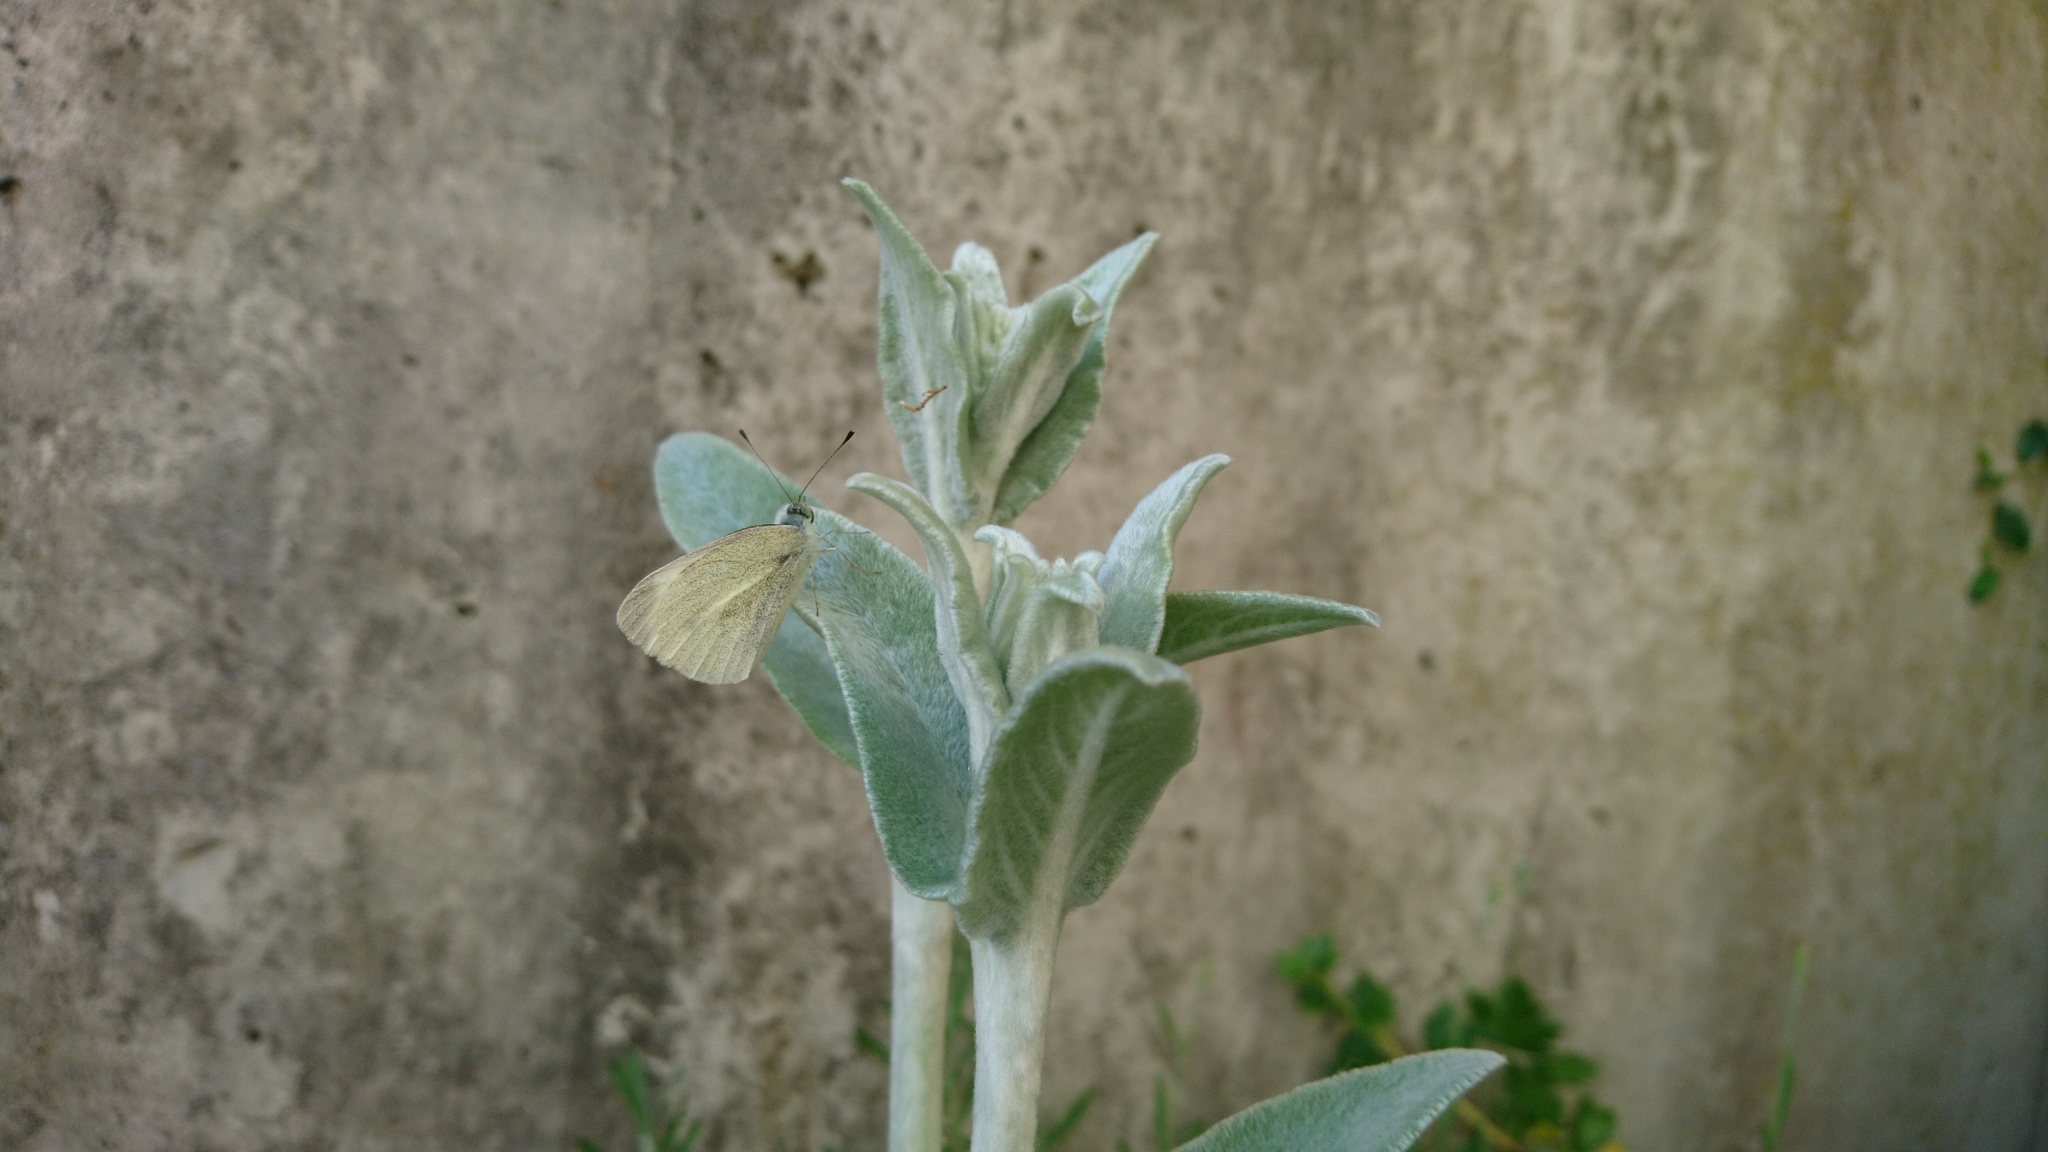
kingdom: Animalia
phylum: Arthropoda
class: Insecta
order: Lepidoptera
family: Pieridae
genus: Pieris
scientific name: Pieris rapae
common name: Small white
